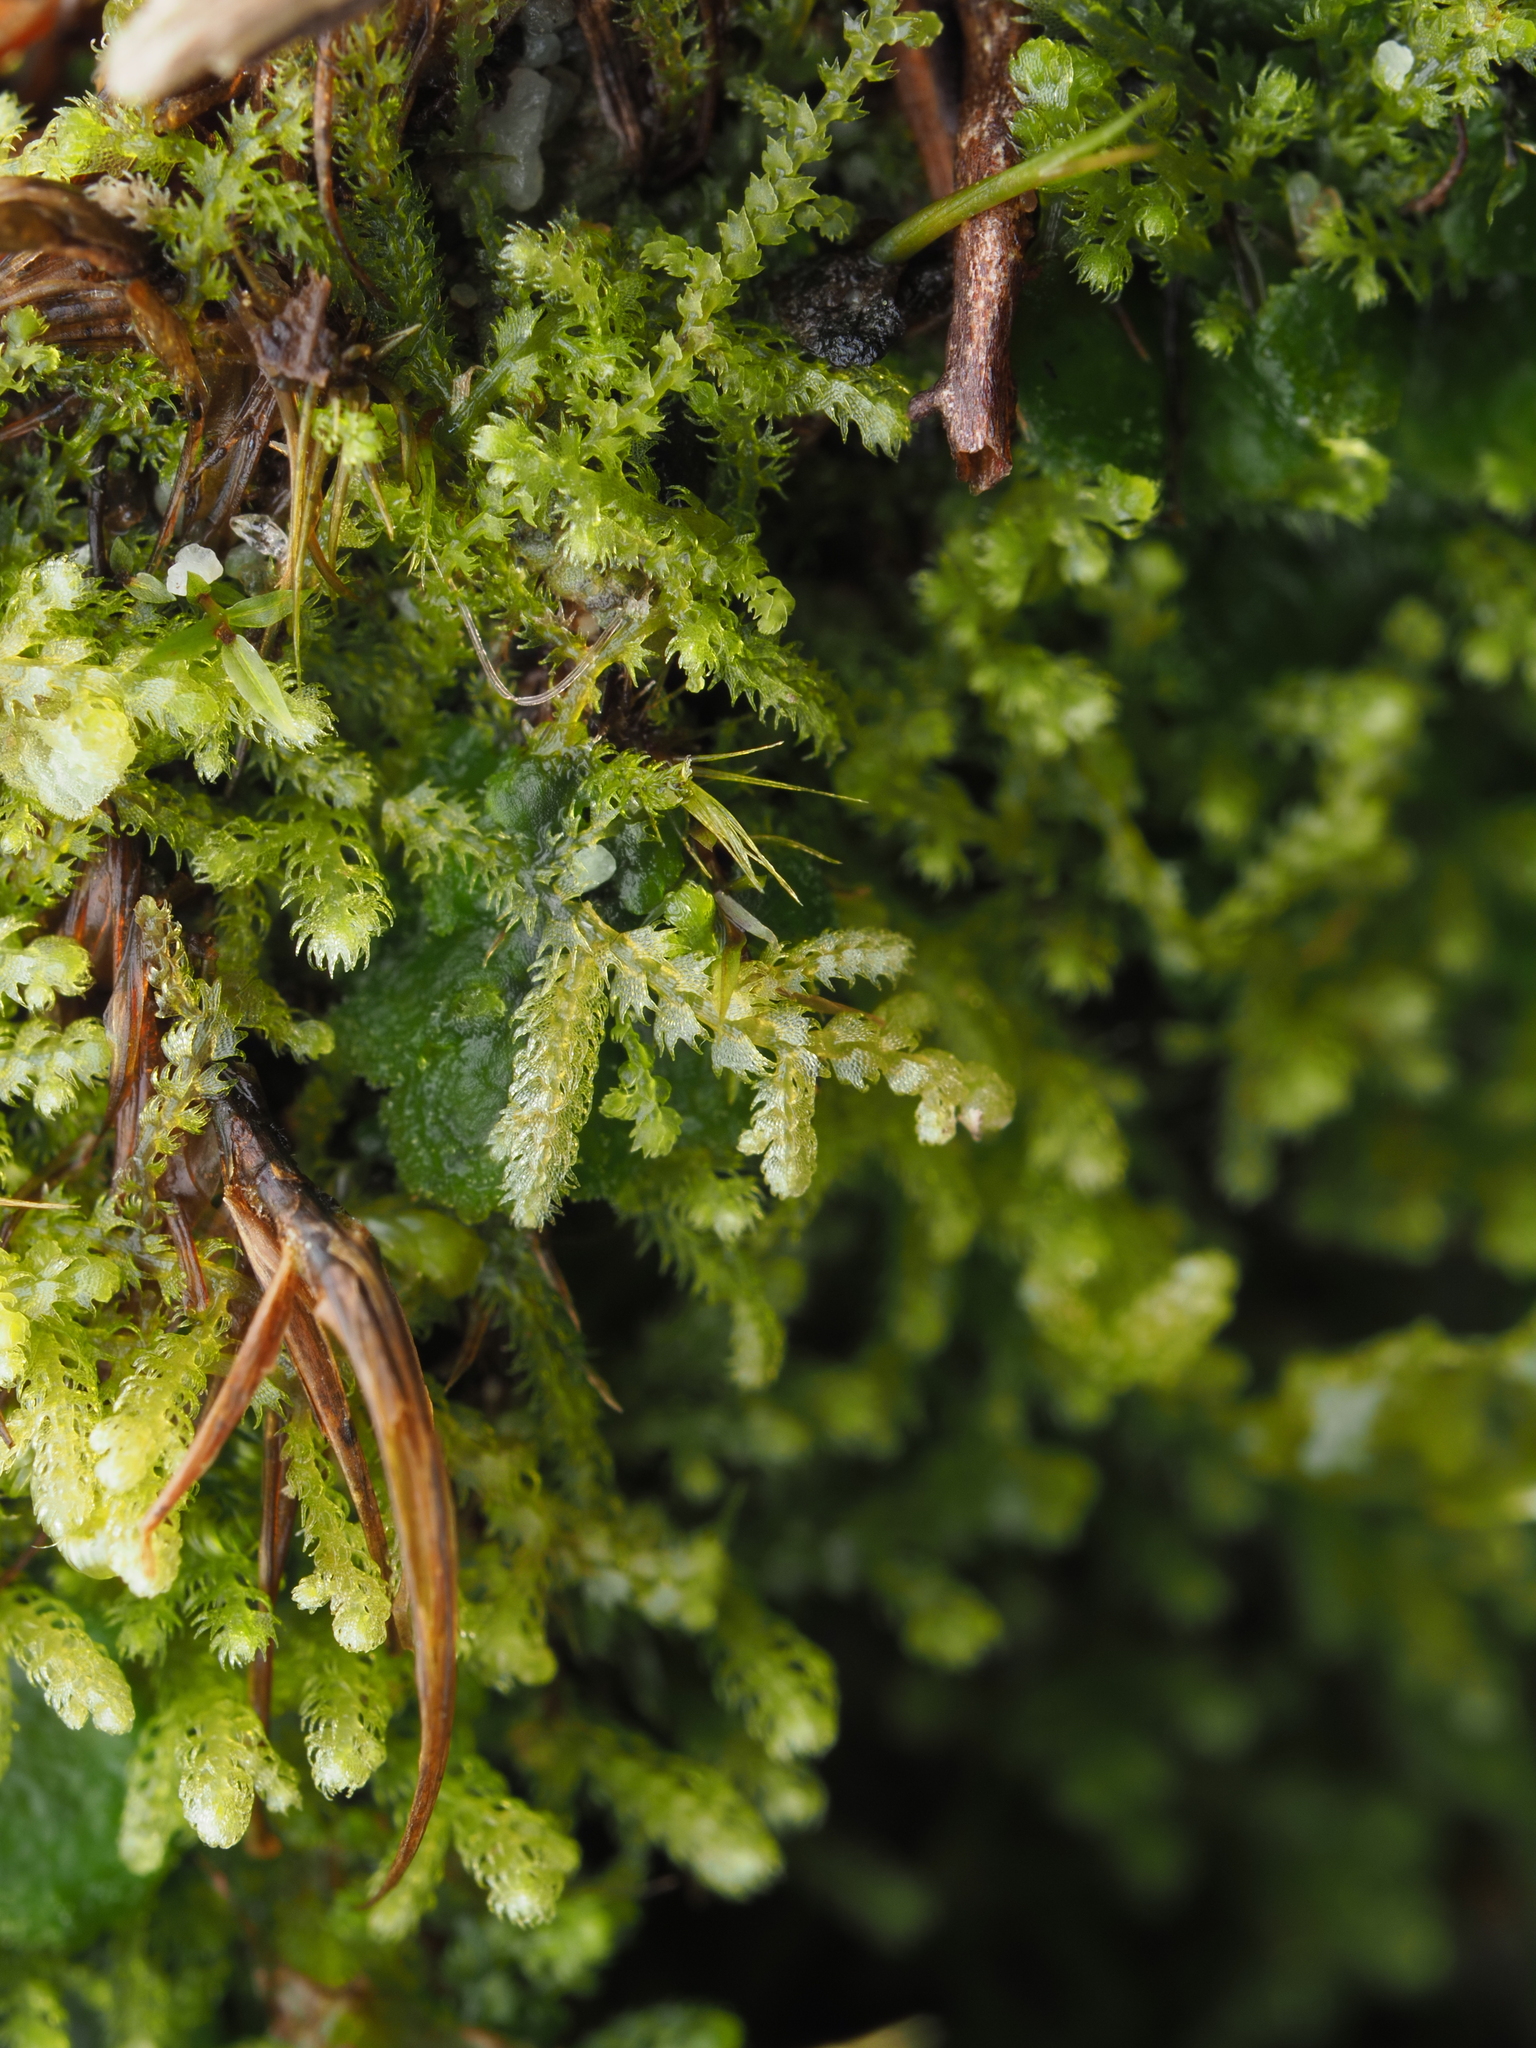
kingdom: Plantae
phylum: Marchantiophyta
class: Jungermanniopsida
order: Jungermanniales
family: Lepidoziaceae
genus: Neolepidozia
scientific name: Neolepidozia tetrapila
